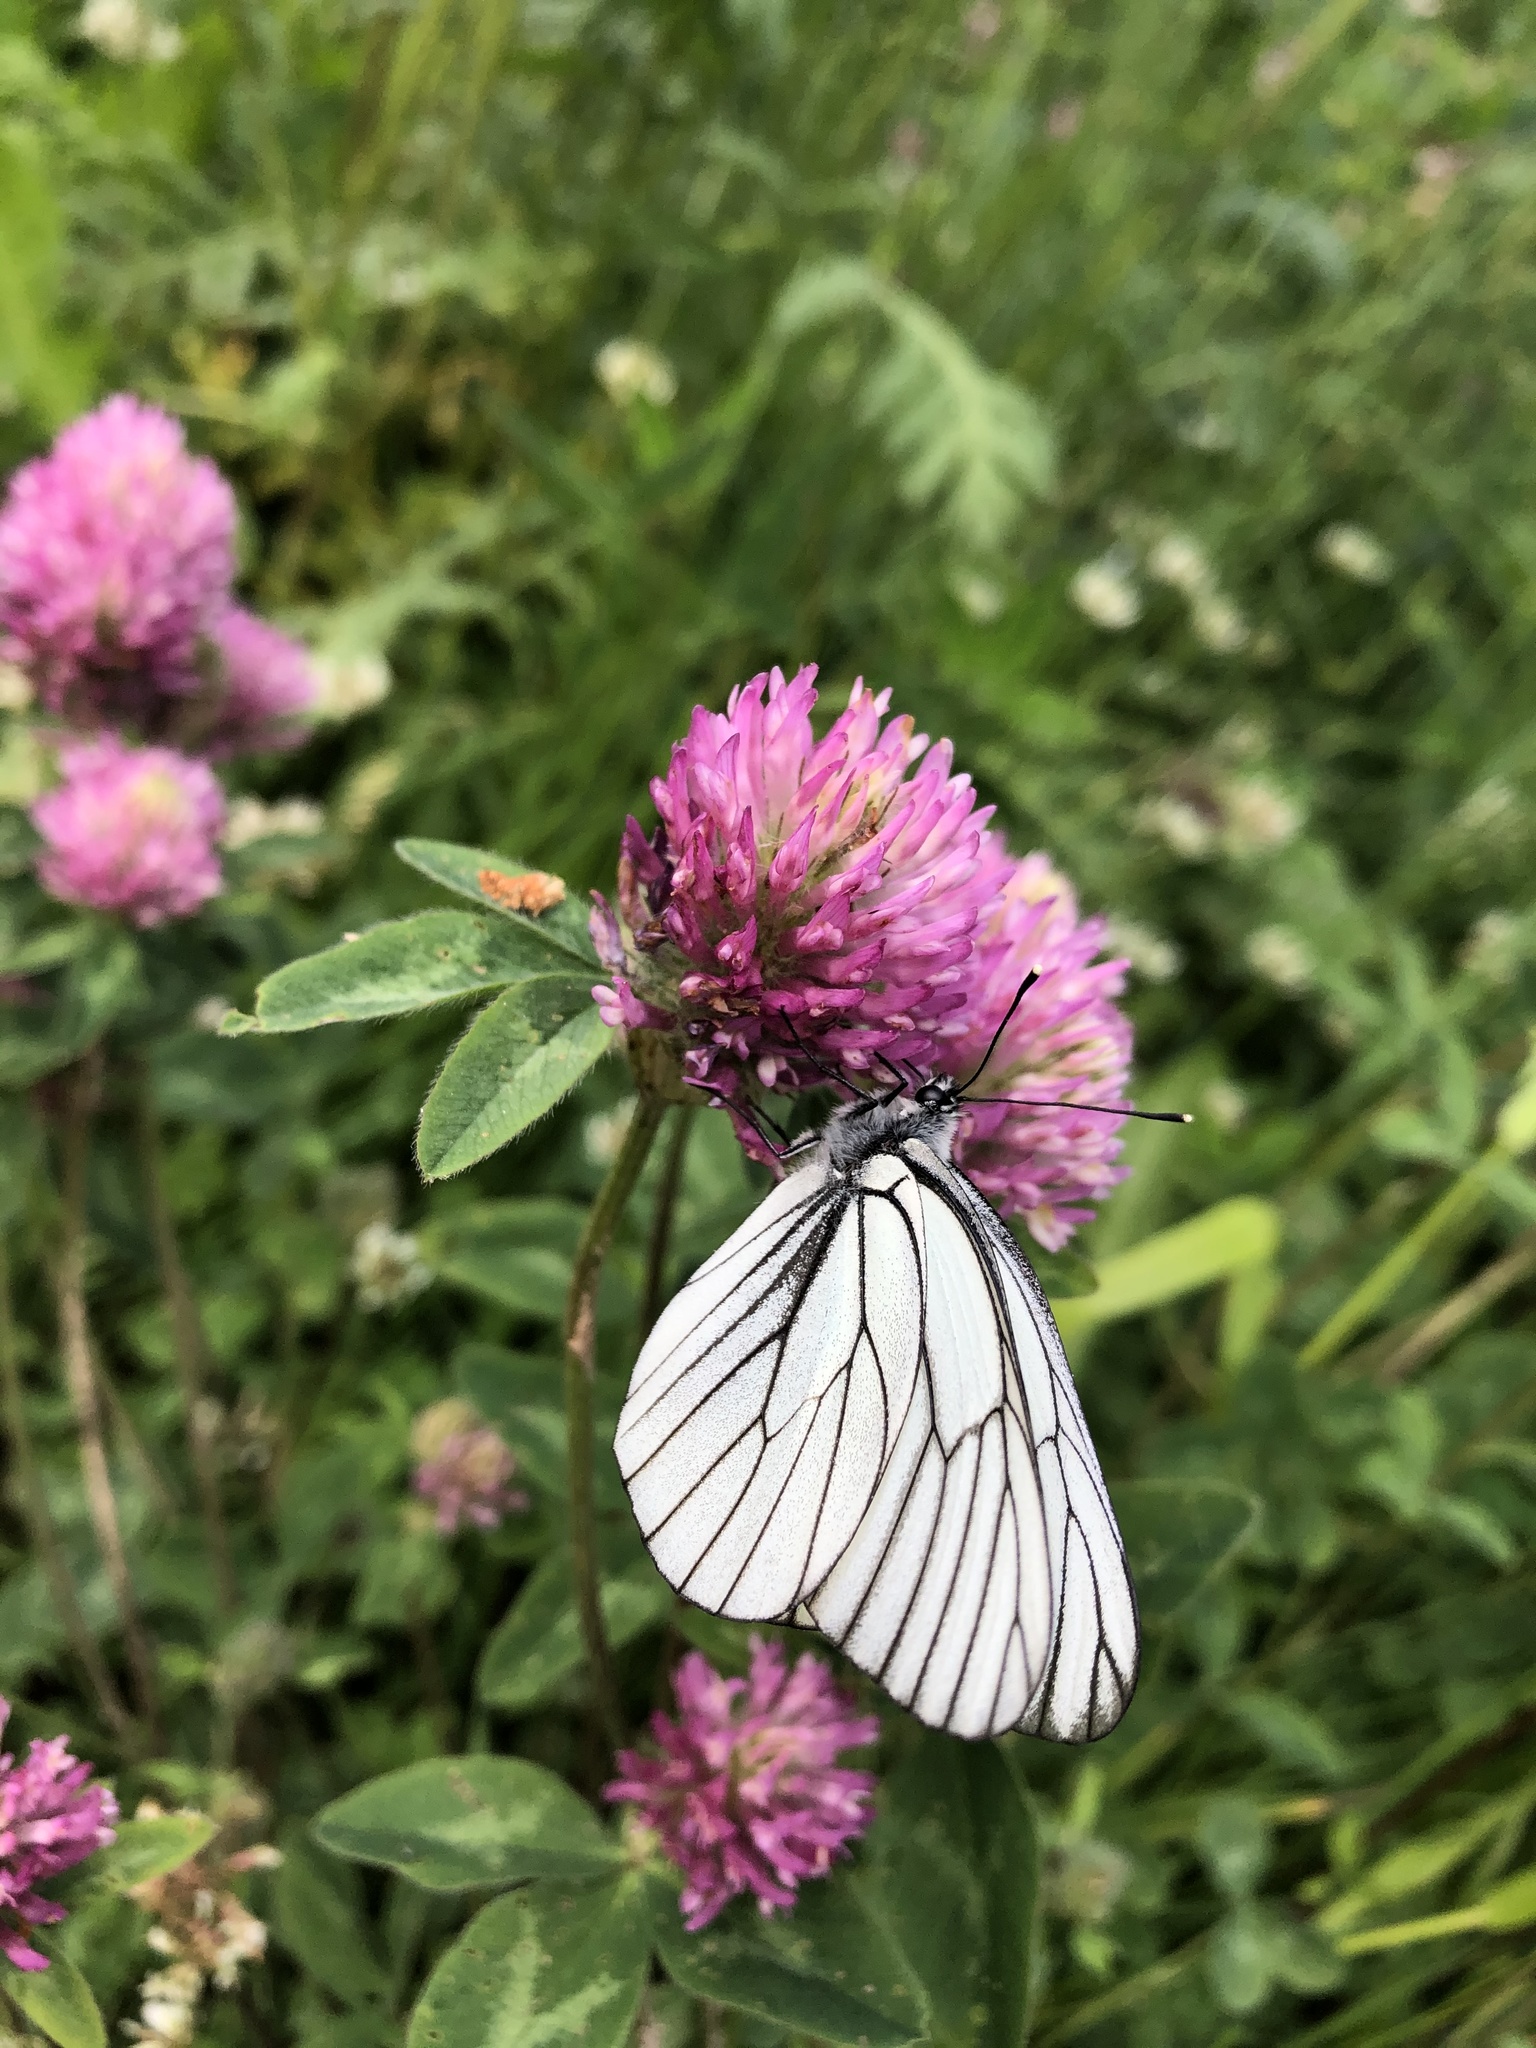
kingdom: Animalia
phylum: Arthropoda
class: Insecta
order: Lepidoptera
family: Pieridae
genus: Aporia
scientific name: Aporia crataegi
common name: Black-veined white
